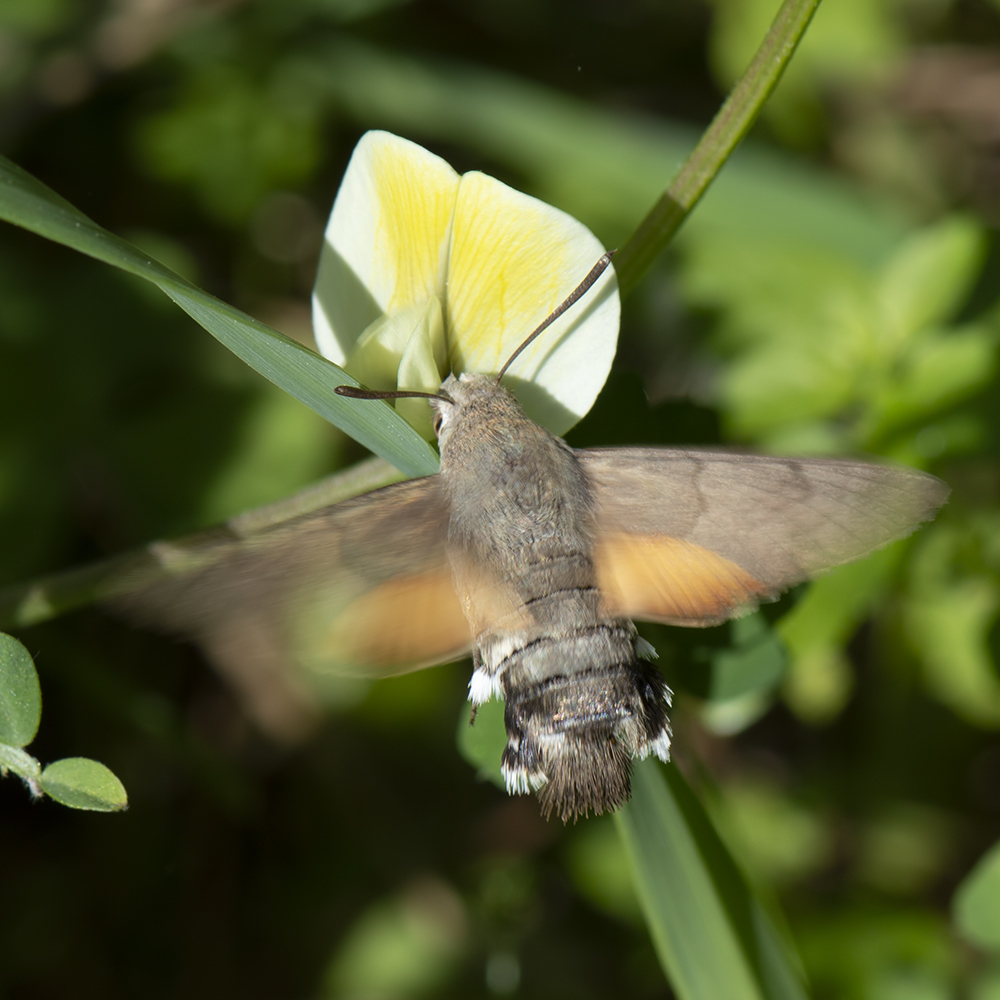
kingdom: Animalia
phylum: Arthropoda
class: Insecta
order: Lepidoptera
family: Sphingidae
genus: Macroglossum
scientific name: Macroglossum stellatarum
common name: Humming-bird hawk-moth
